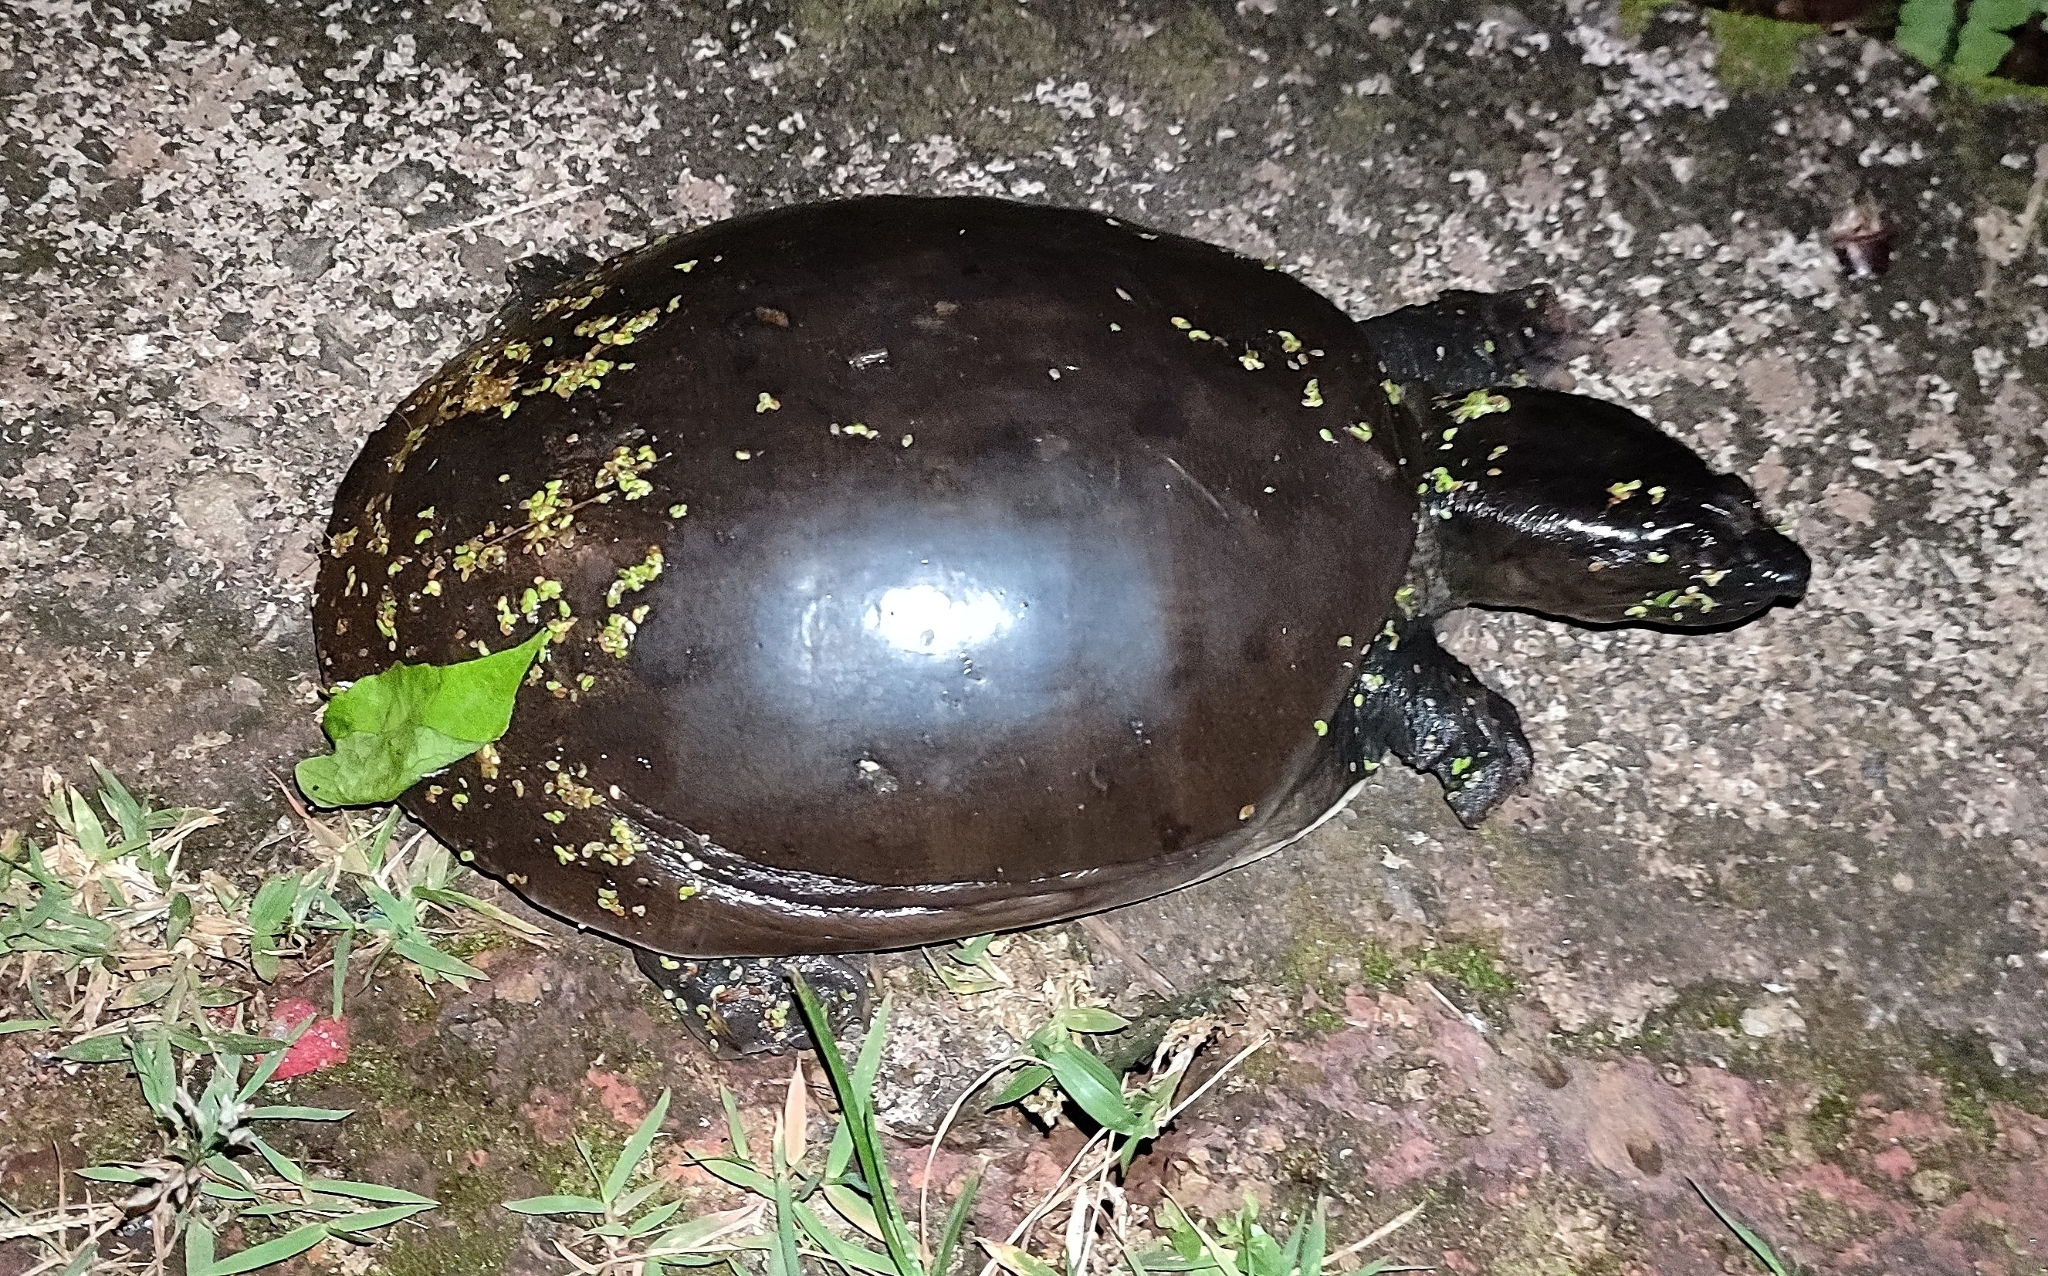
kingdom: Animalia
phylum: Chordata
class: Testudines
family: Trionychidae
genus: Lissemys
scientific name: Lissemys punctata
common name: Indian flap-shelled turtle
